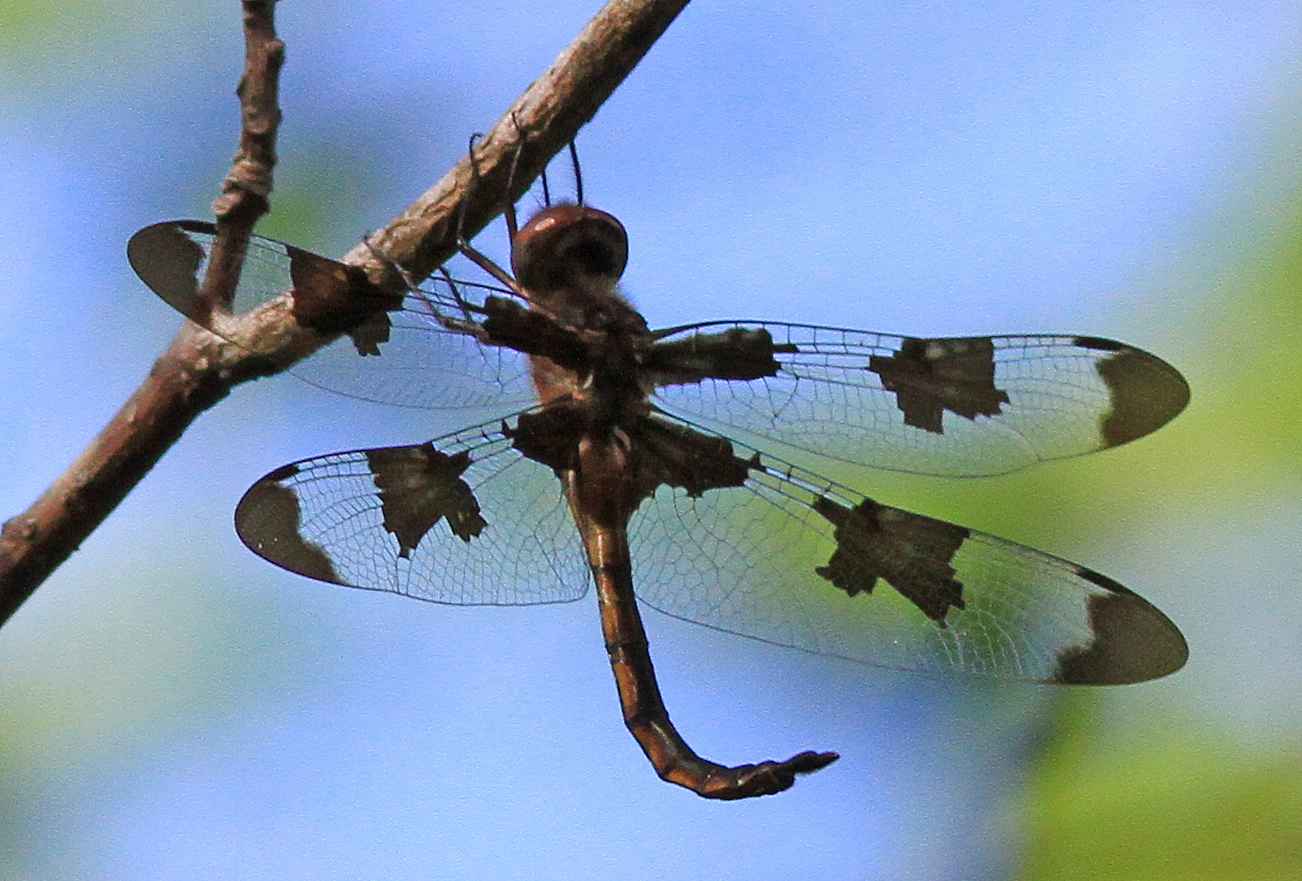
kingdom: Animalia
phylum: Arthropoda
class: Insecta
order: Odonata
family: Corduliidae
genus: Epitheca
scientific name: Epitheca princeps
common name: Prince baskettail
